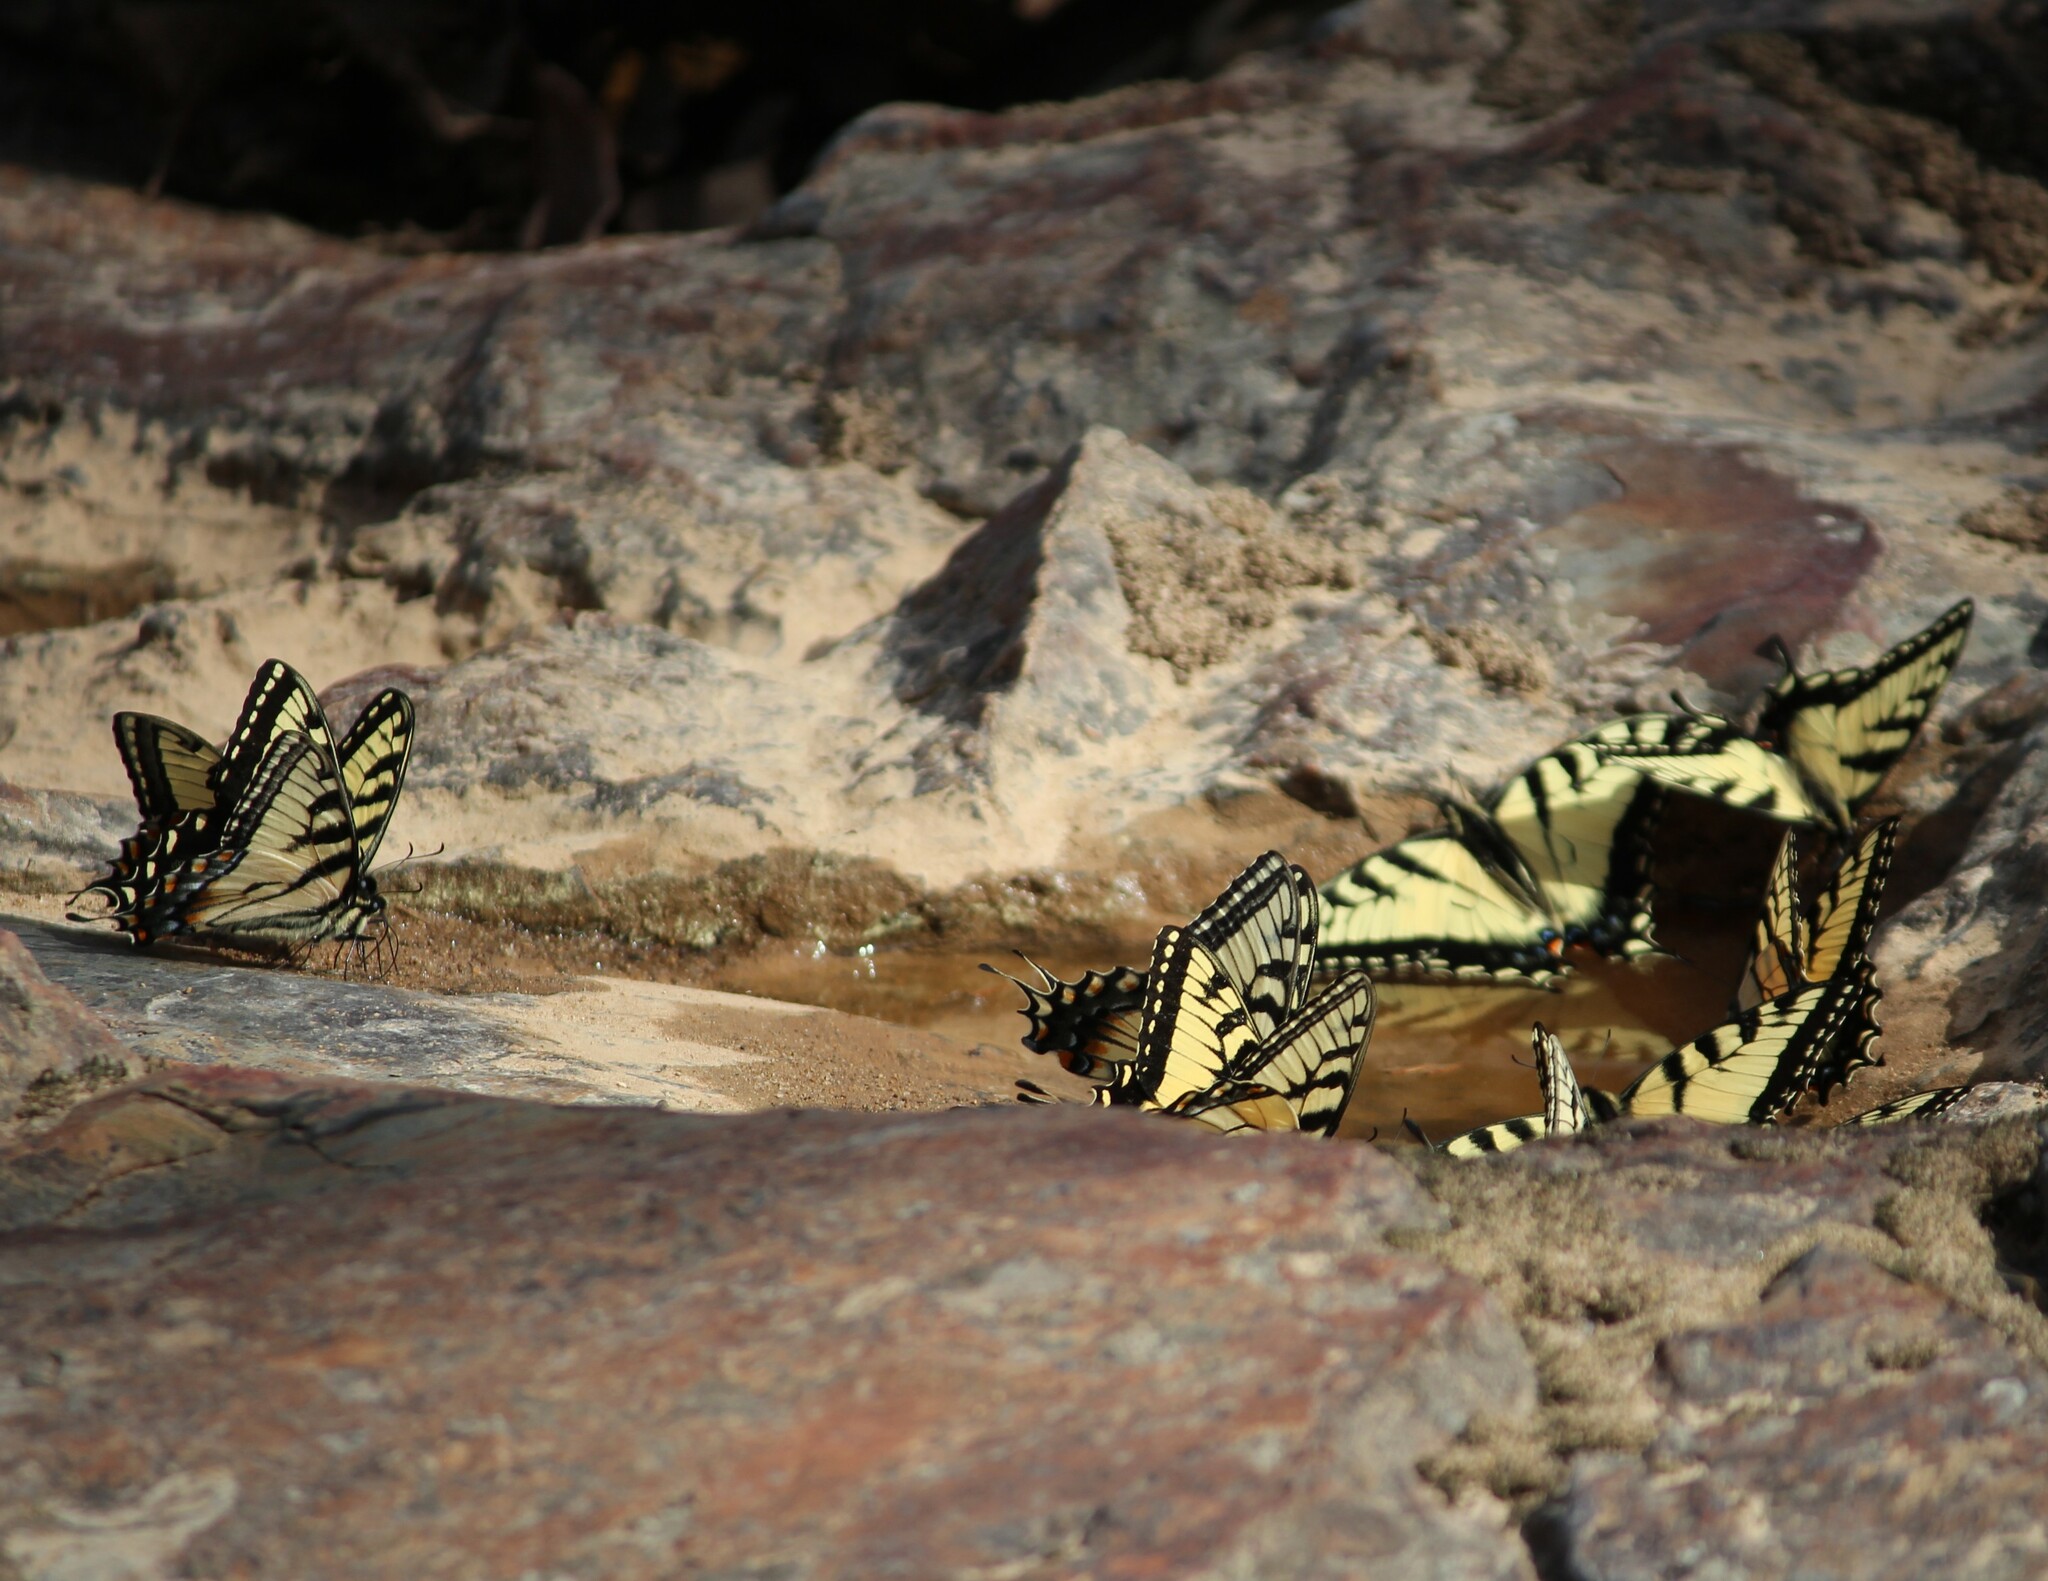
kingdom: Animalia
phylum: Arthropoda
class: Insecta
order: Lepidoptera
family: Papilionidae
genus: Papilio
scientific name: Papilio glaucus
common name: Tiger swallowtail
